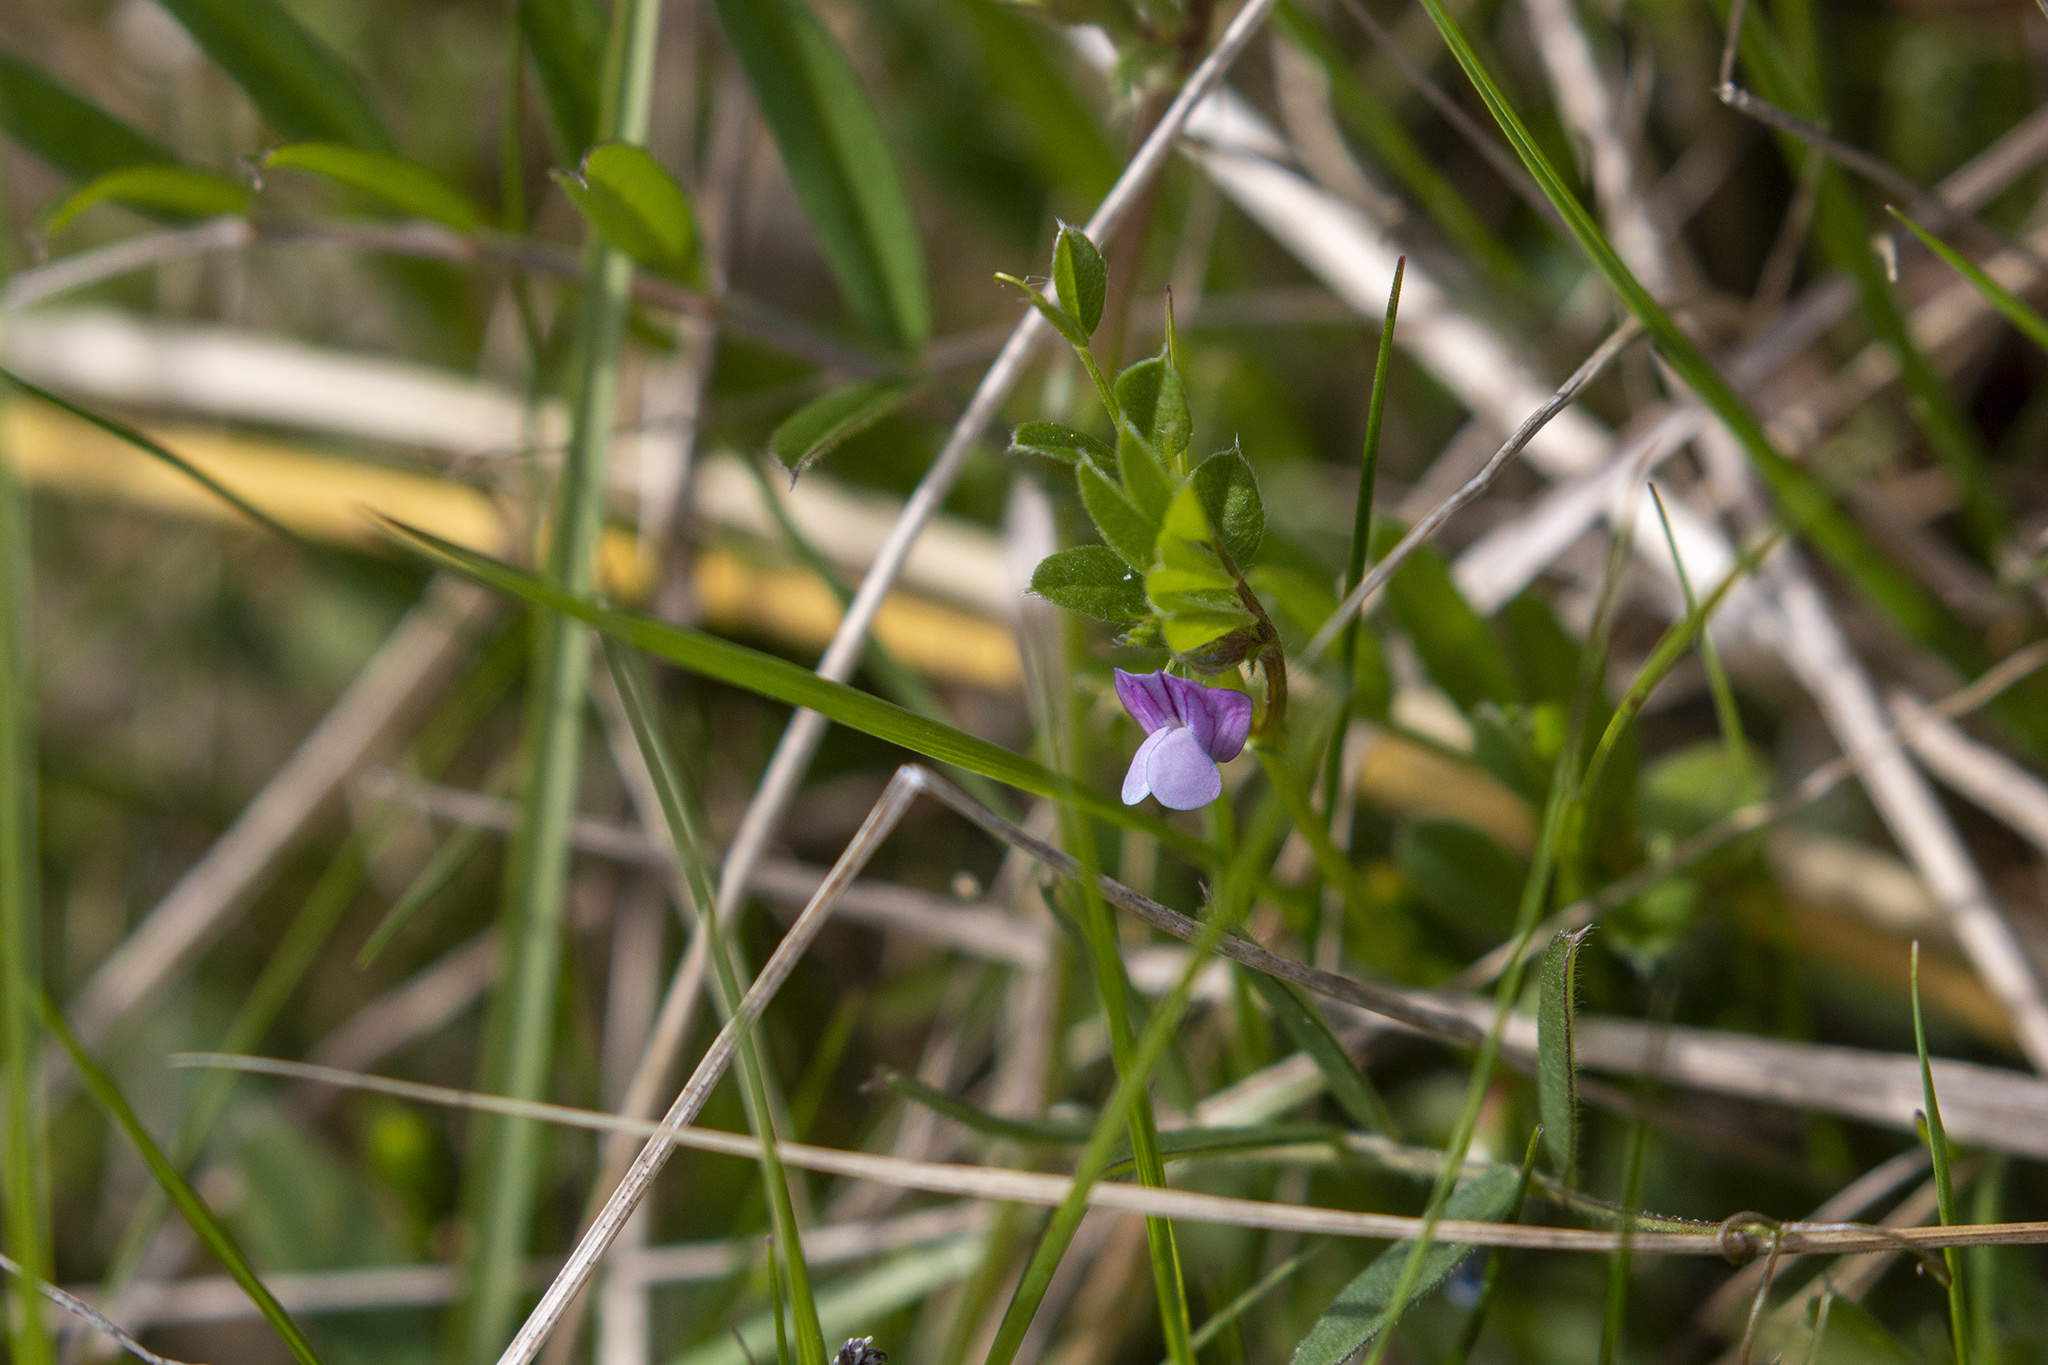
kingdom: Plantae
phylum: Tracheophyta
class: Magnoliopsida
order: Fabales
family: Fabaceae
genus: Vicia
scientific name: Vicia lathyroides
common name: Spring vetch
